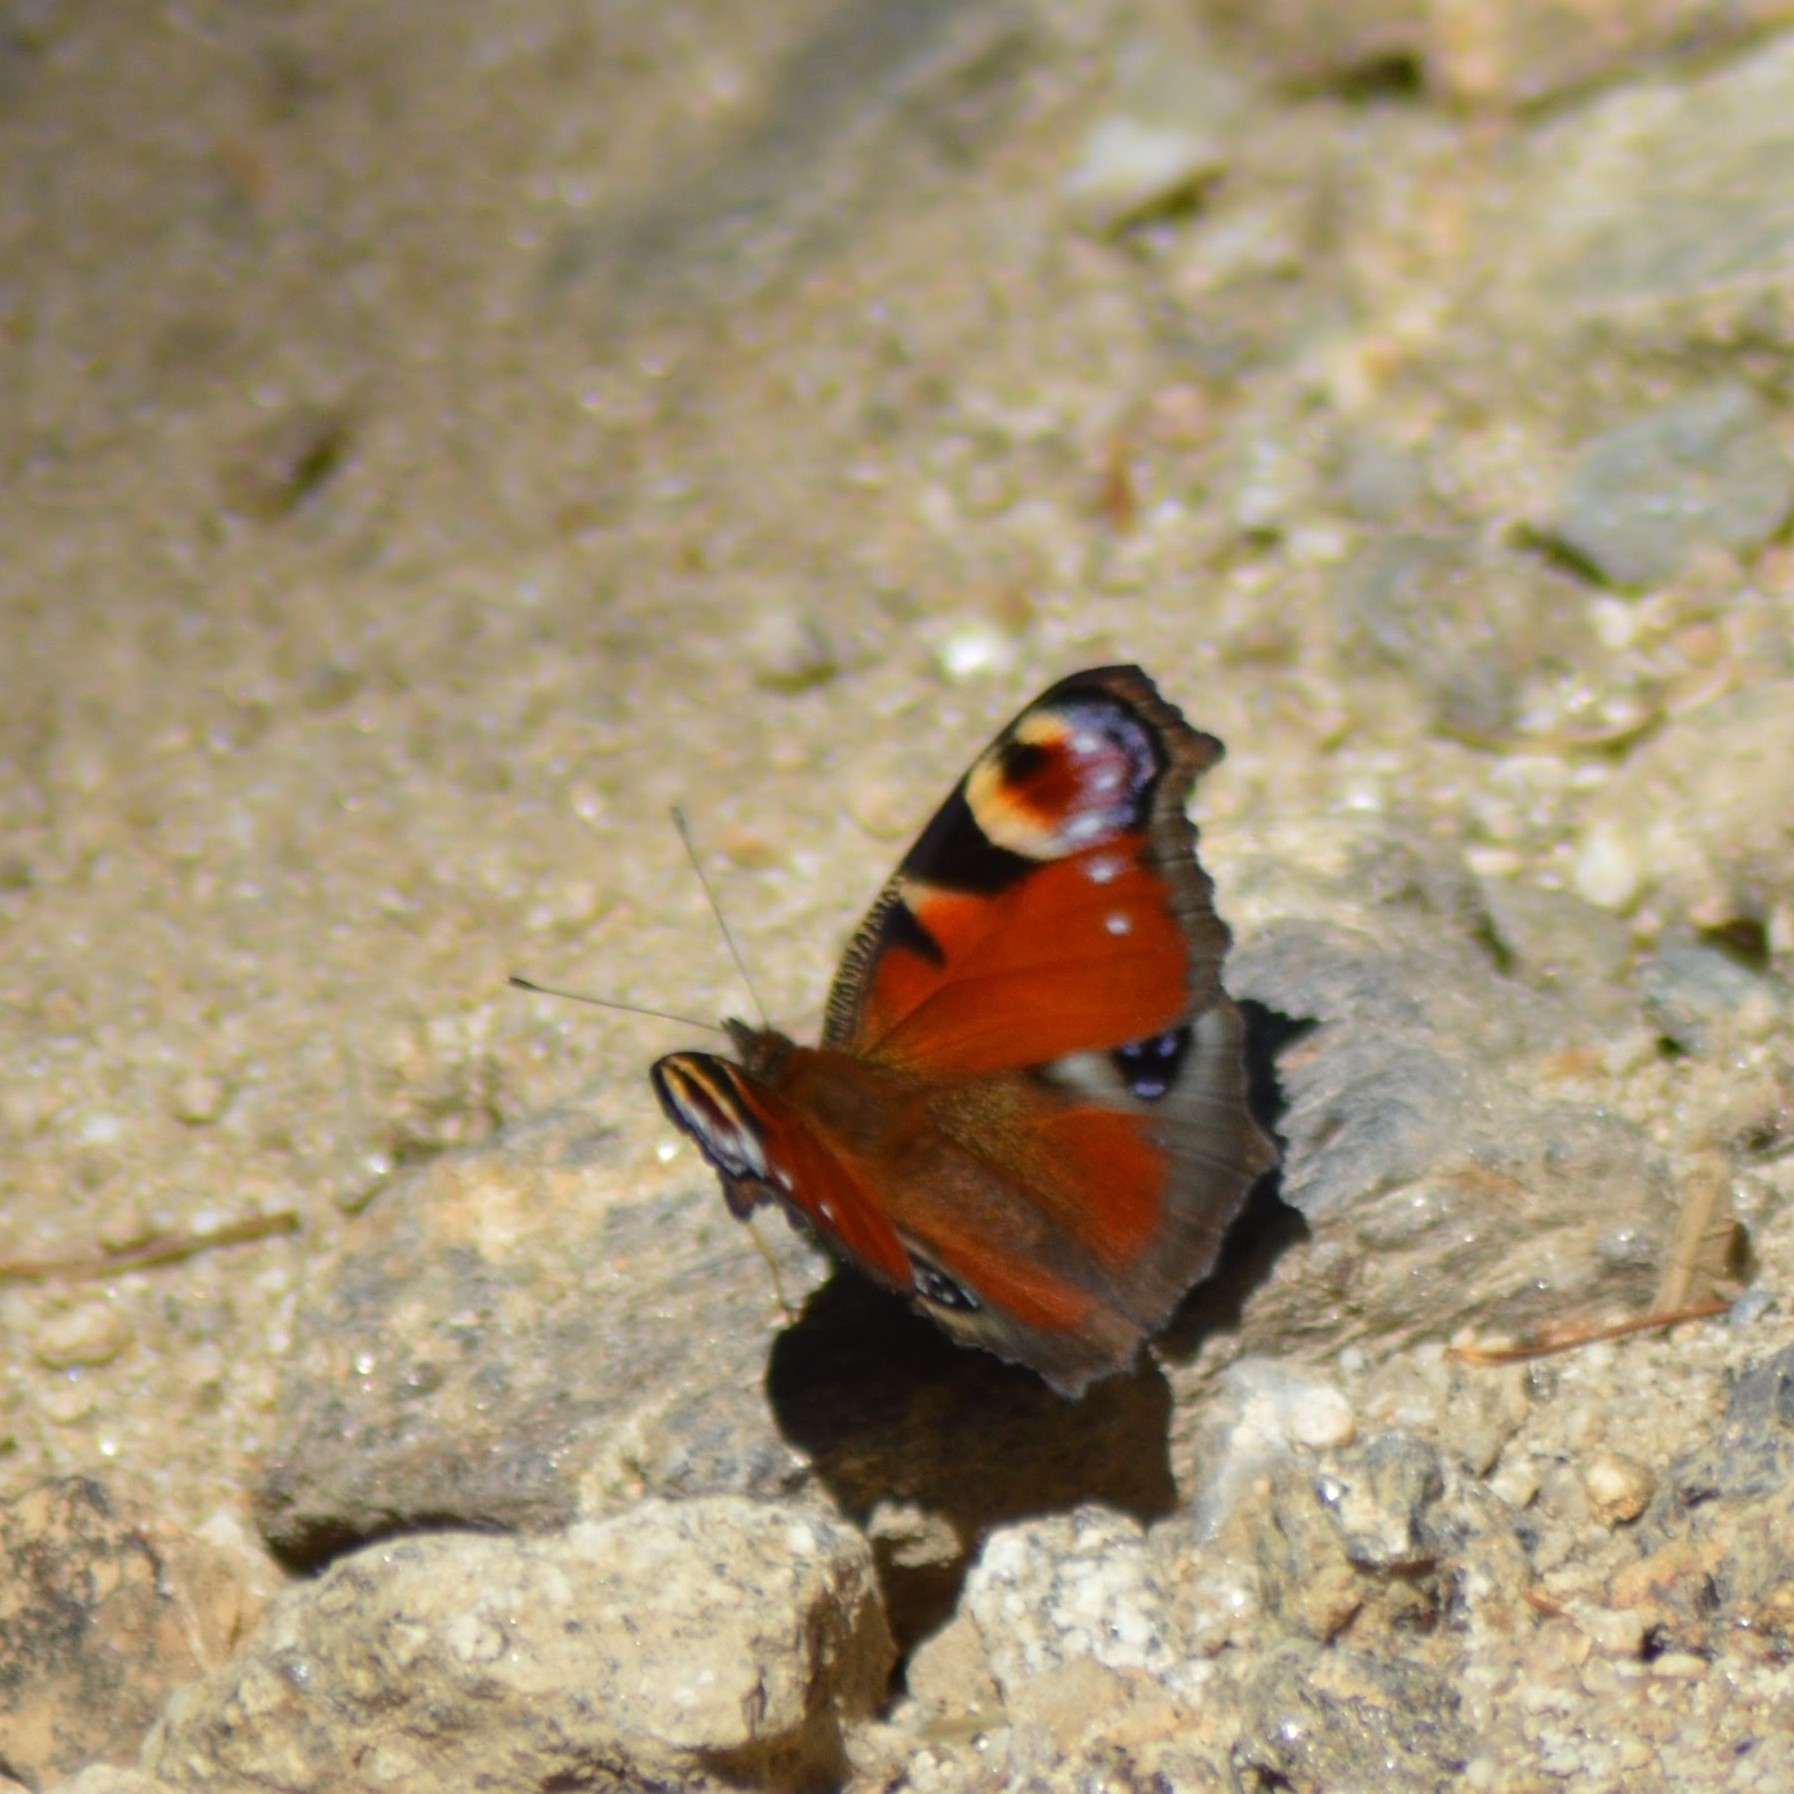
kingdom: Animalia
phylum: Arthropoda
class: Insecta
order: Lepidoptera
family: Nymphalidae
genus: Aglais
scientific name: Aglais io
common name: Peacock
